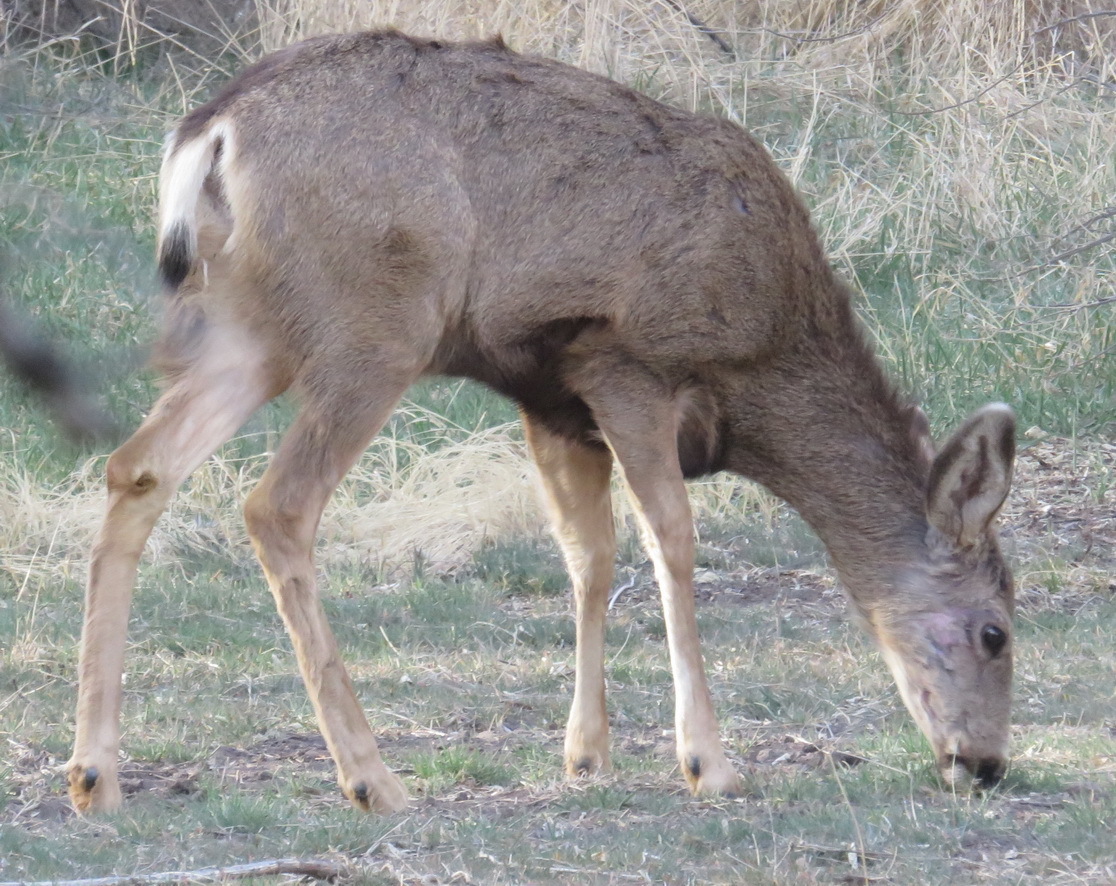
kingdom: Animalia
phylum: Chordata
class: Mammalia
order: Artiodactyla
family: Cervidae
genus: Odocoileus
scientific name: Odocoileus hemionus
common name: Mule deer
